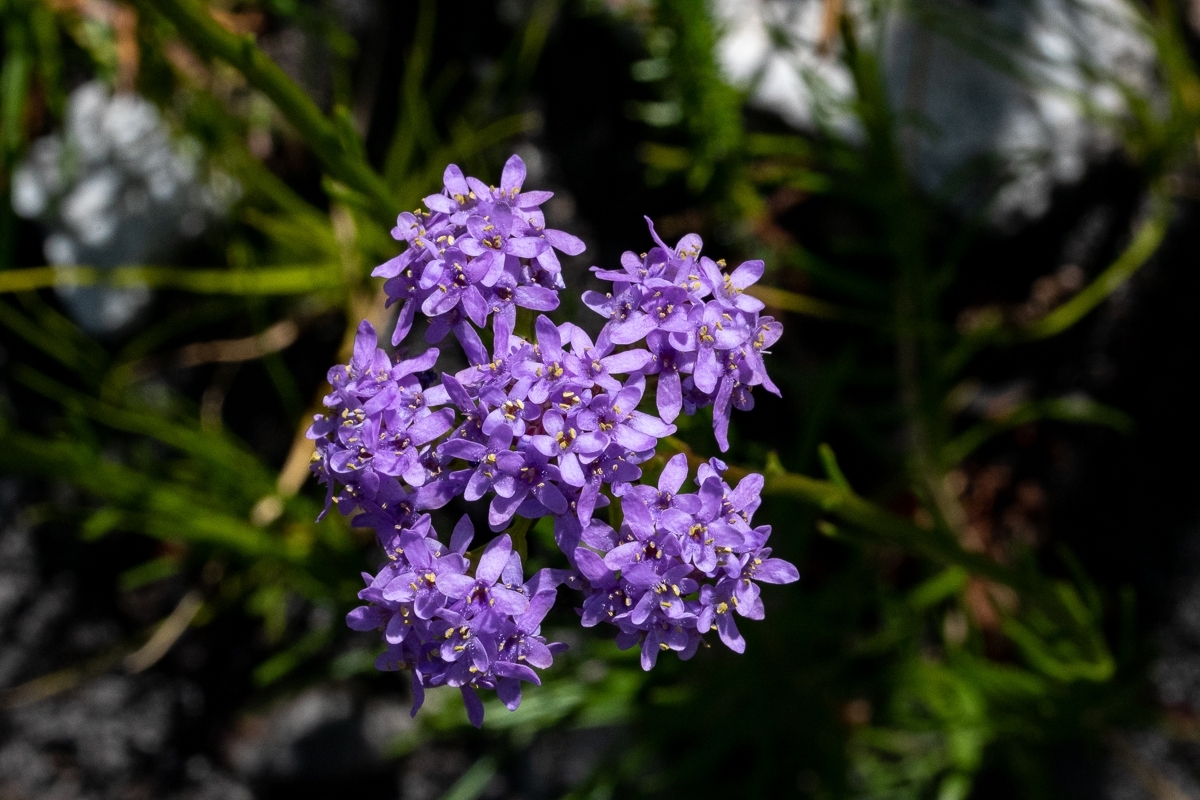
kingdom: Plantae
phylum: Tracheophyta
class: Magnoliopsida
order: Lamiales
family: Scrophulariaceae
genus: Pseudoselago
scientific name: Pseudoselago spuria
